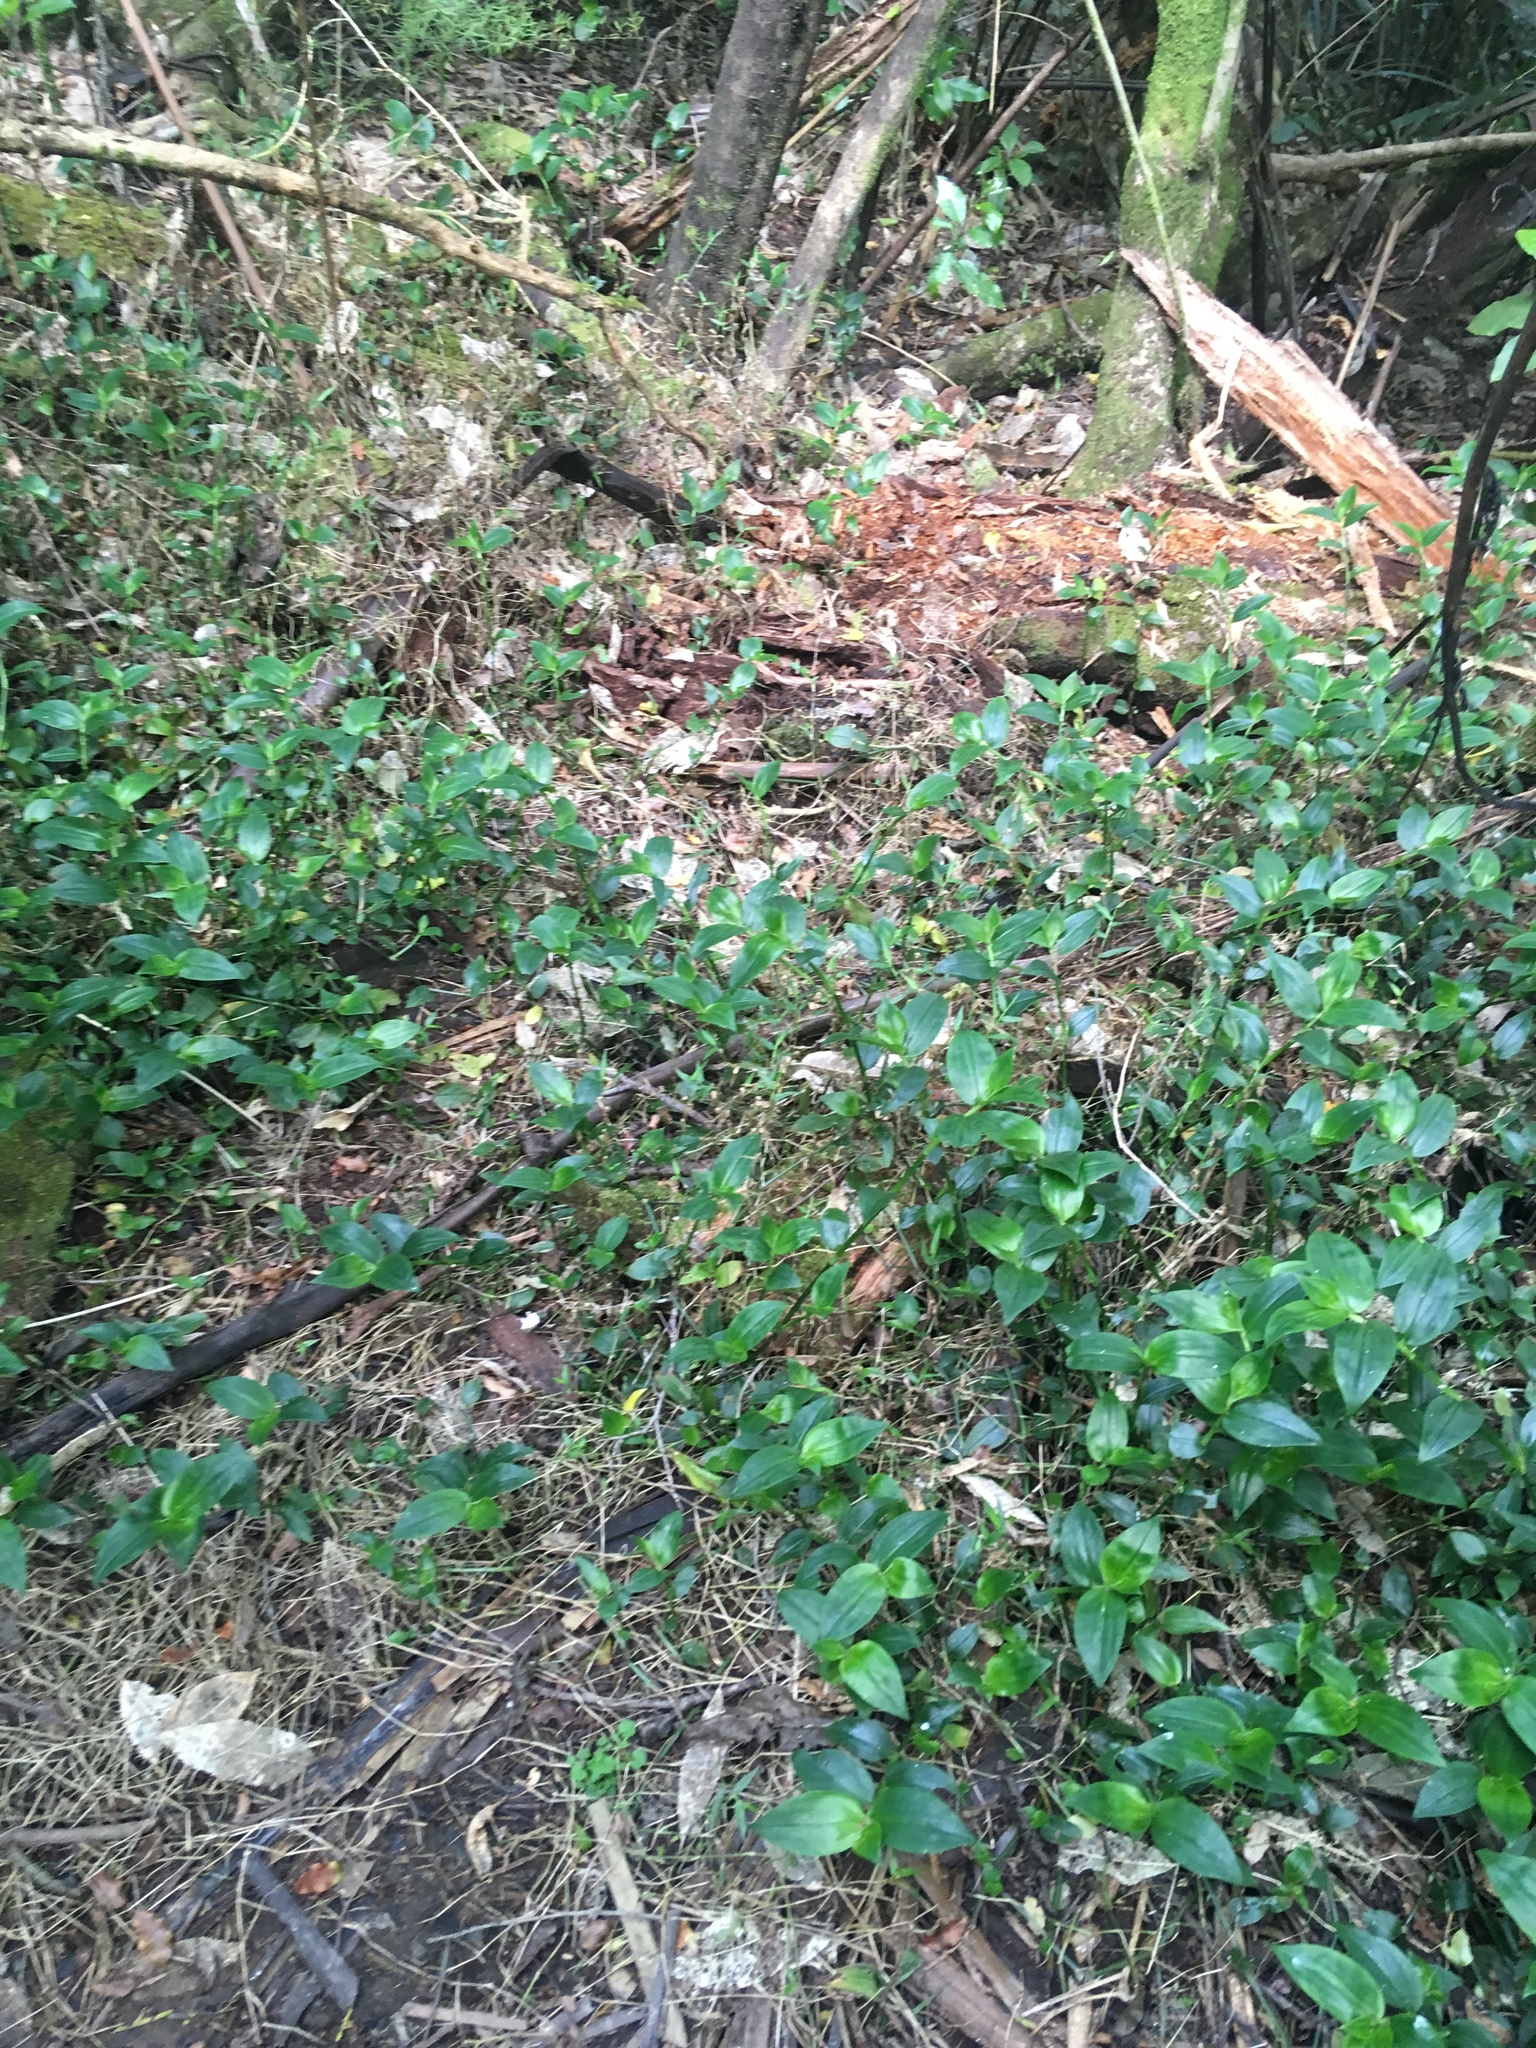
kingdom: Plantae
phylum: Tracheophyta
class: Liliopsida
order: Commelinales
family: Commelinaceae
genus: Tradescantia
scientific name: Tradescantia fluminensis
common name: Wandering-jew
